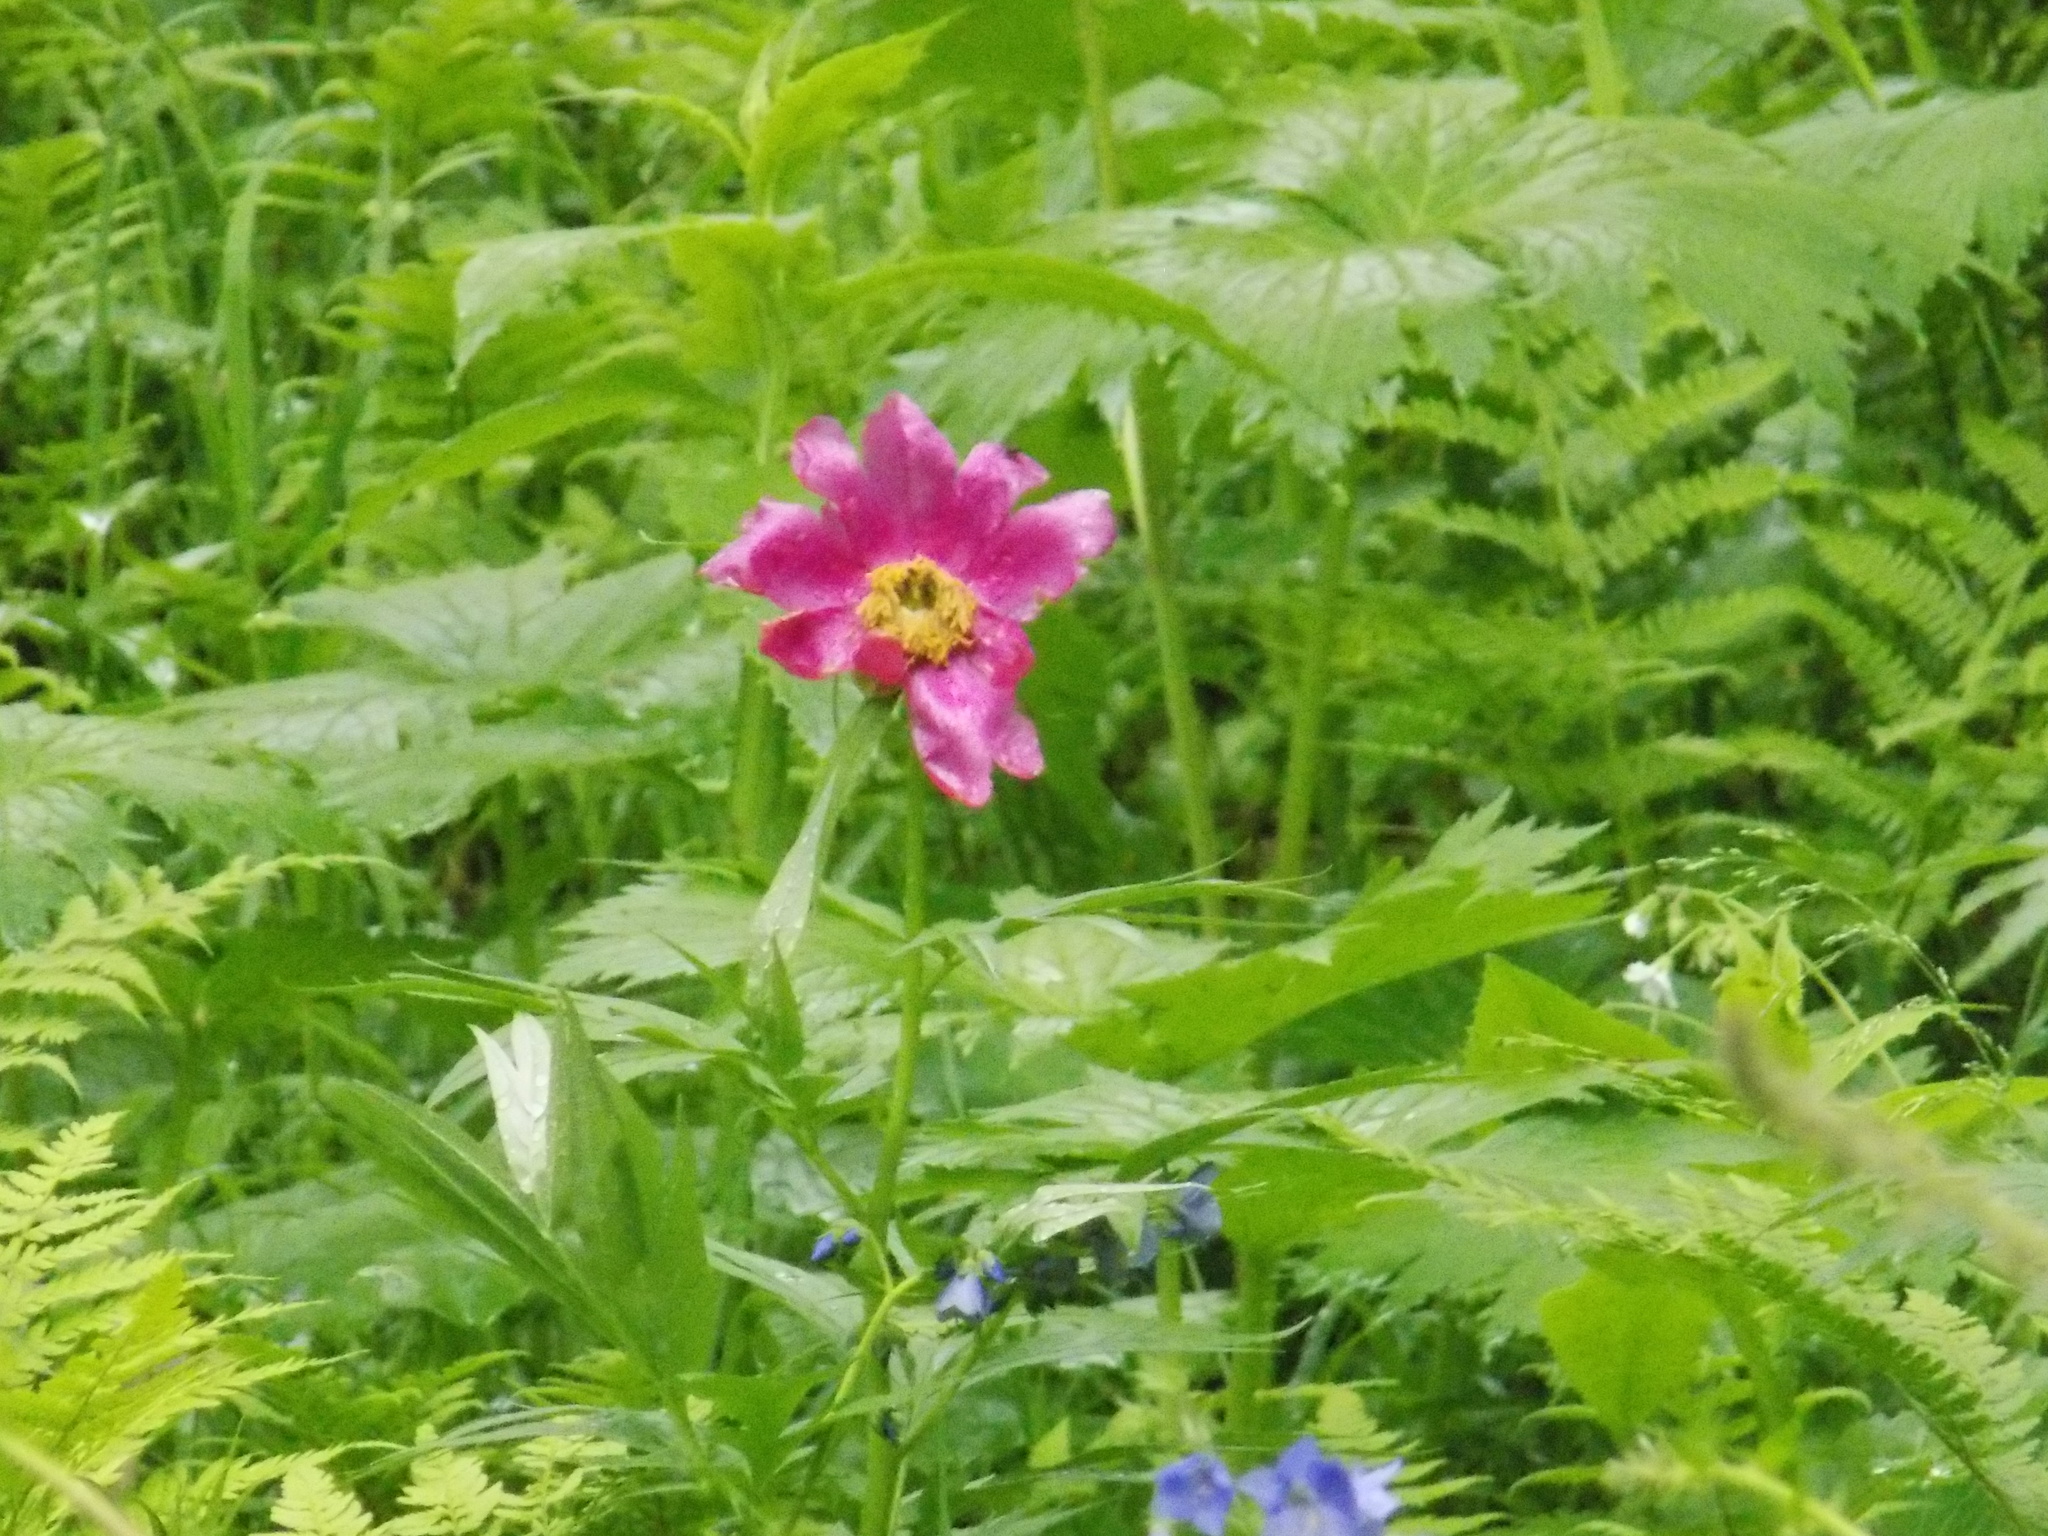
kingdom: Plantae
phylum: Tracheophyta
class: Magnoliopsida
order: Saxifragales
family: Paeoniaceae
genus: Paeonia
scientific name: Paeonia anomala
